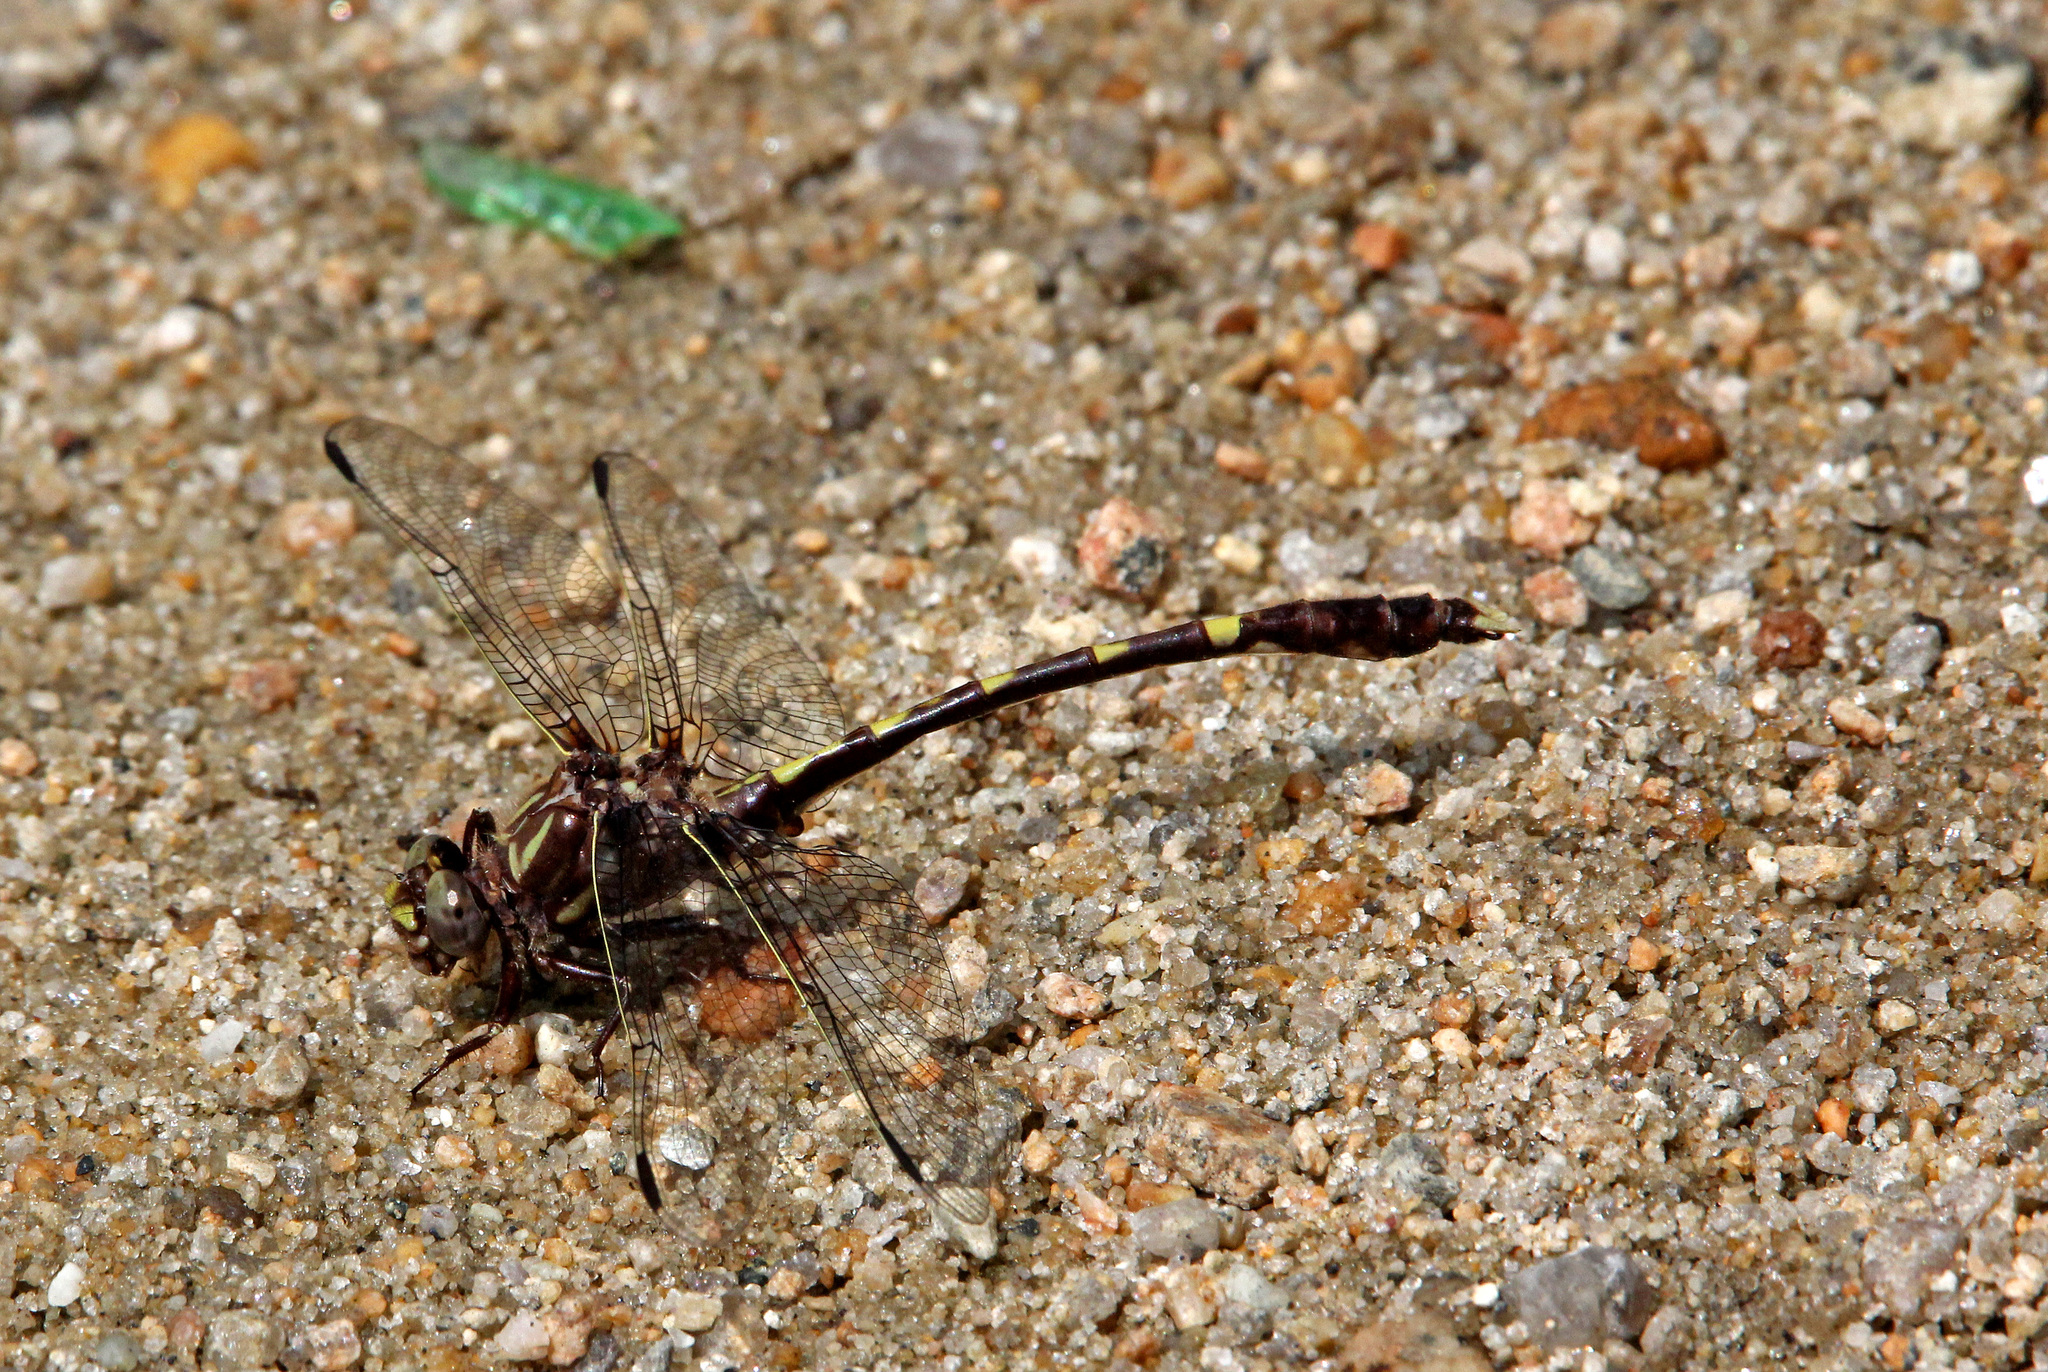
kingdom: Animalia
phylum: Arthropoda
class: Insecta
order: Odonata
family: Gomphidae
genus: Progomphus
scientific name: Progomphus obscurus
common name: Common sanddragon
